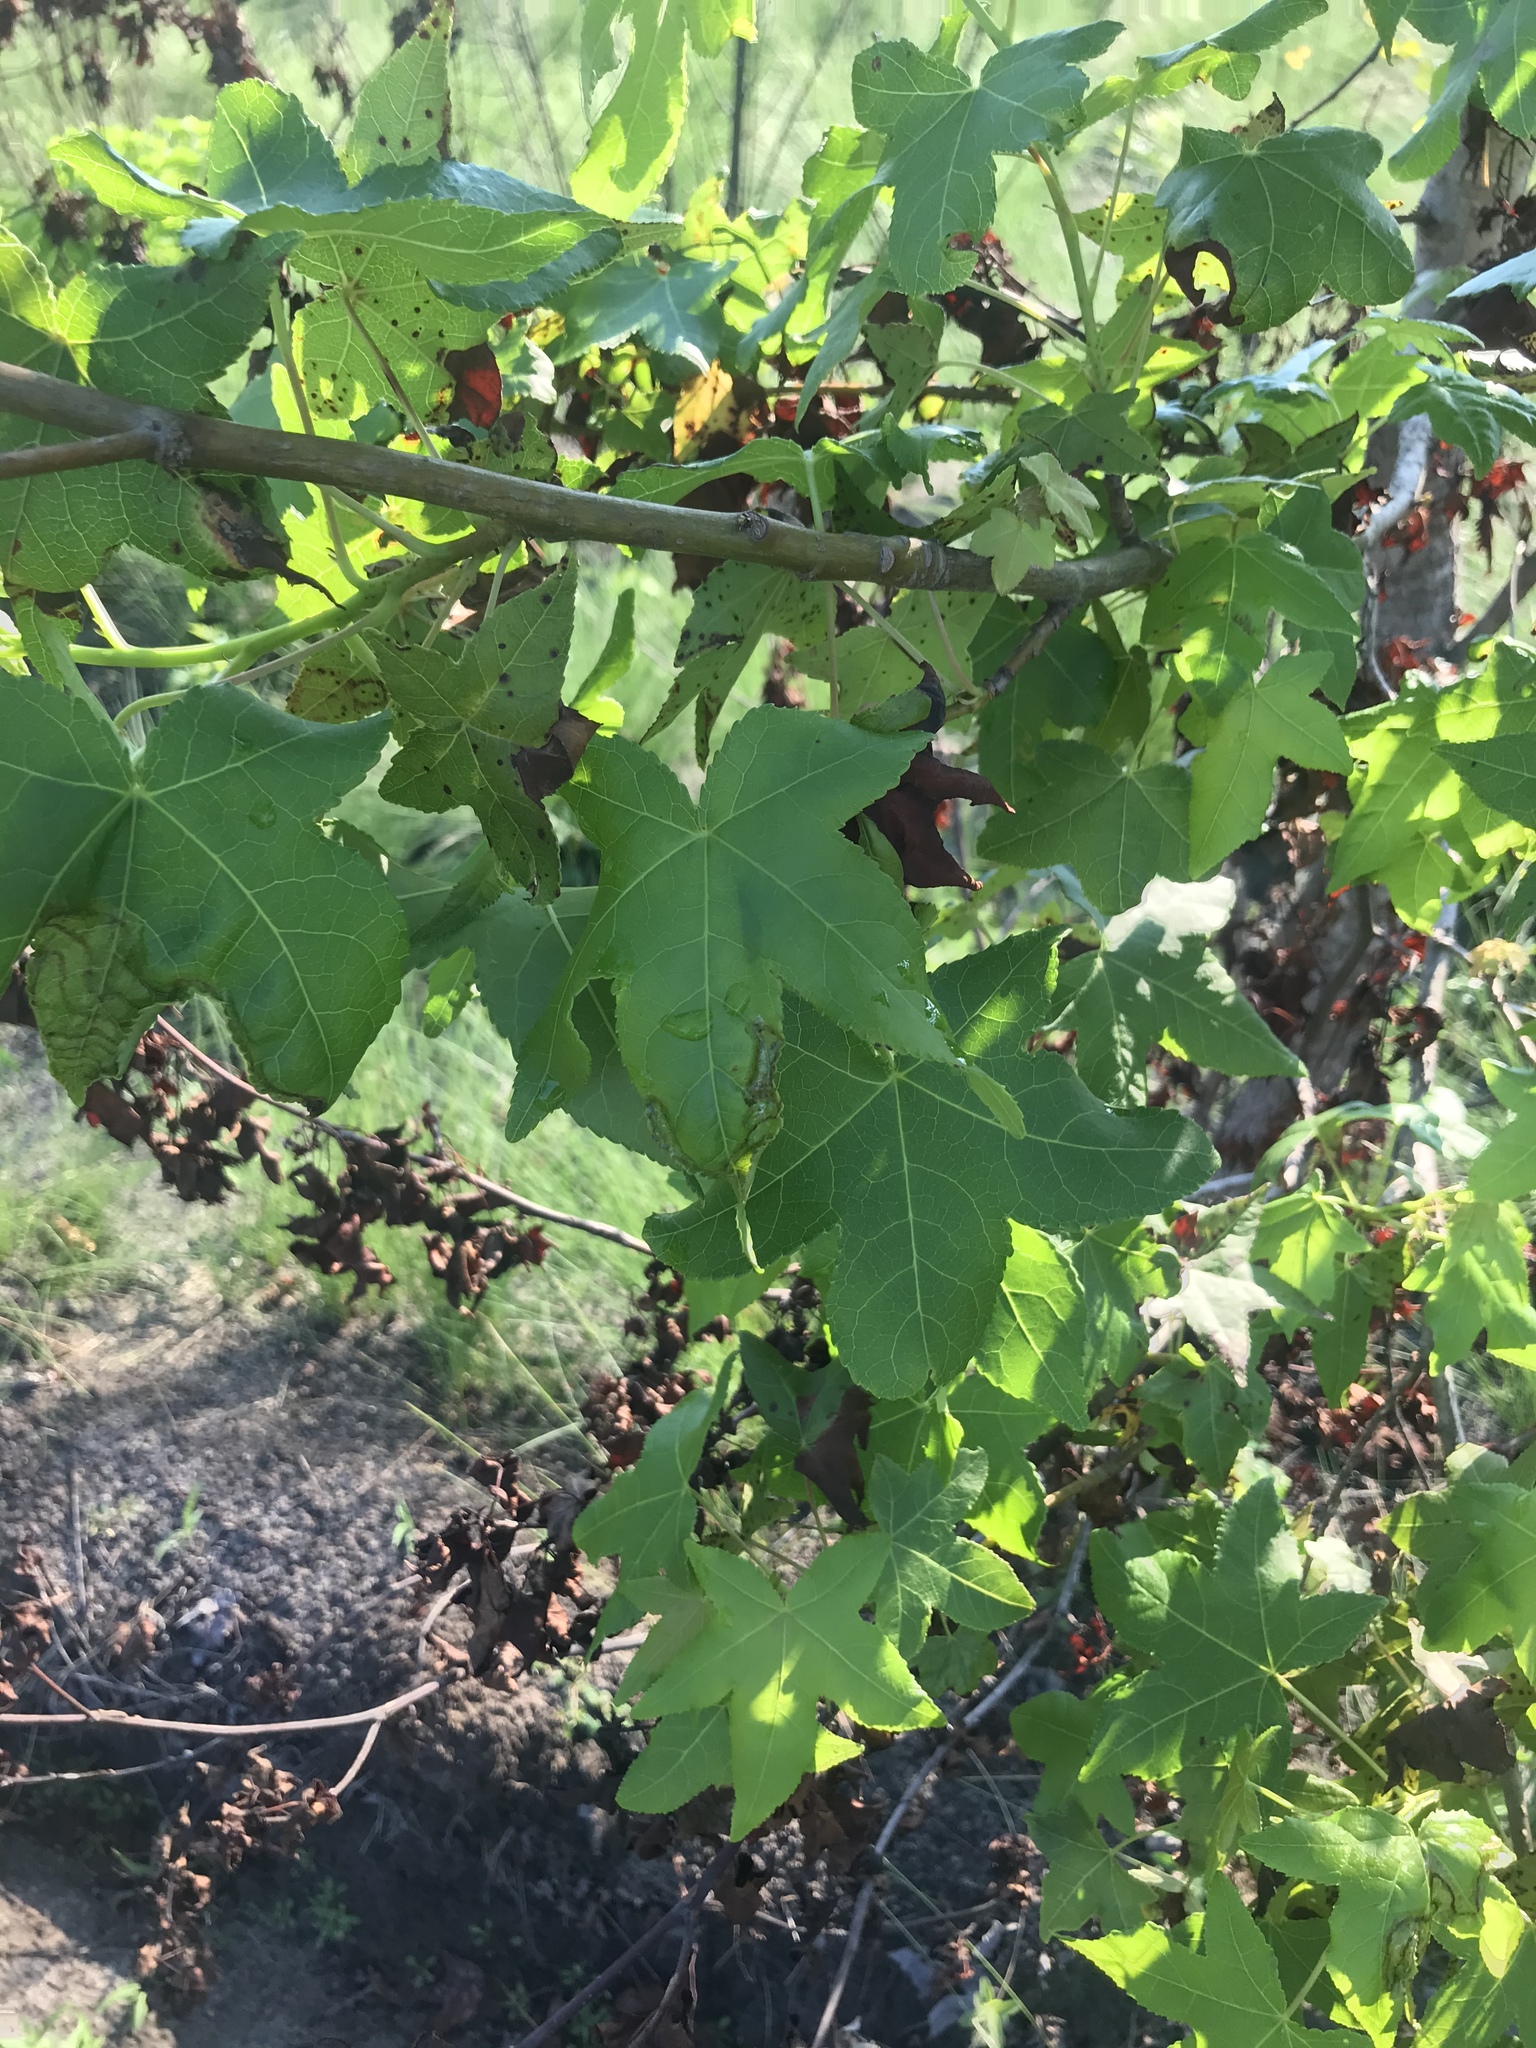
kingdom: Plantae
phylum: Tracheophyta
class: Magnoliopsida
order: Saxifragales
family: Altingiaceae
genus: Liquidambar
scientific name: Liquidambar styraciflua
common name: Sweet gum
